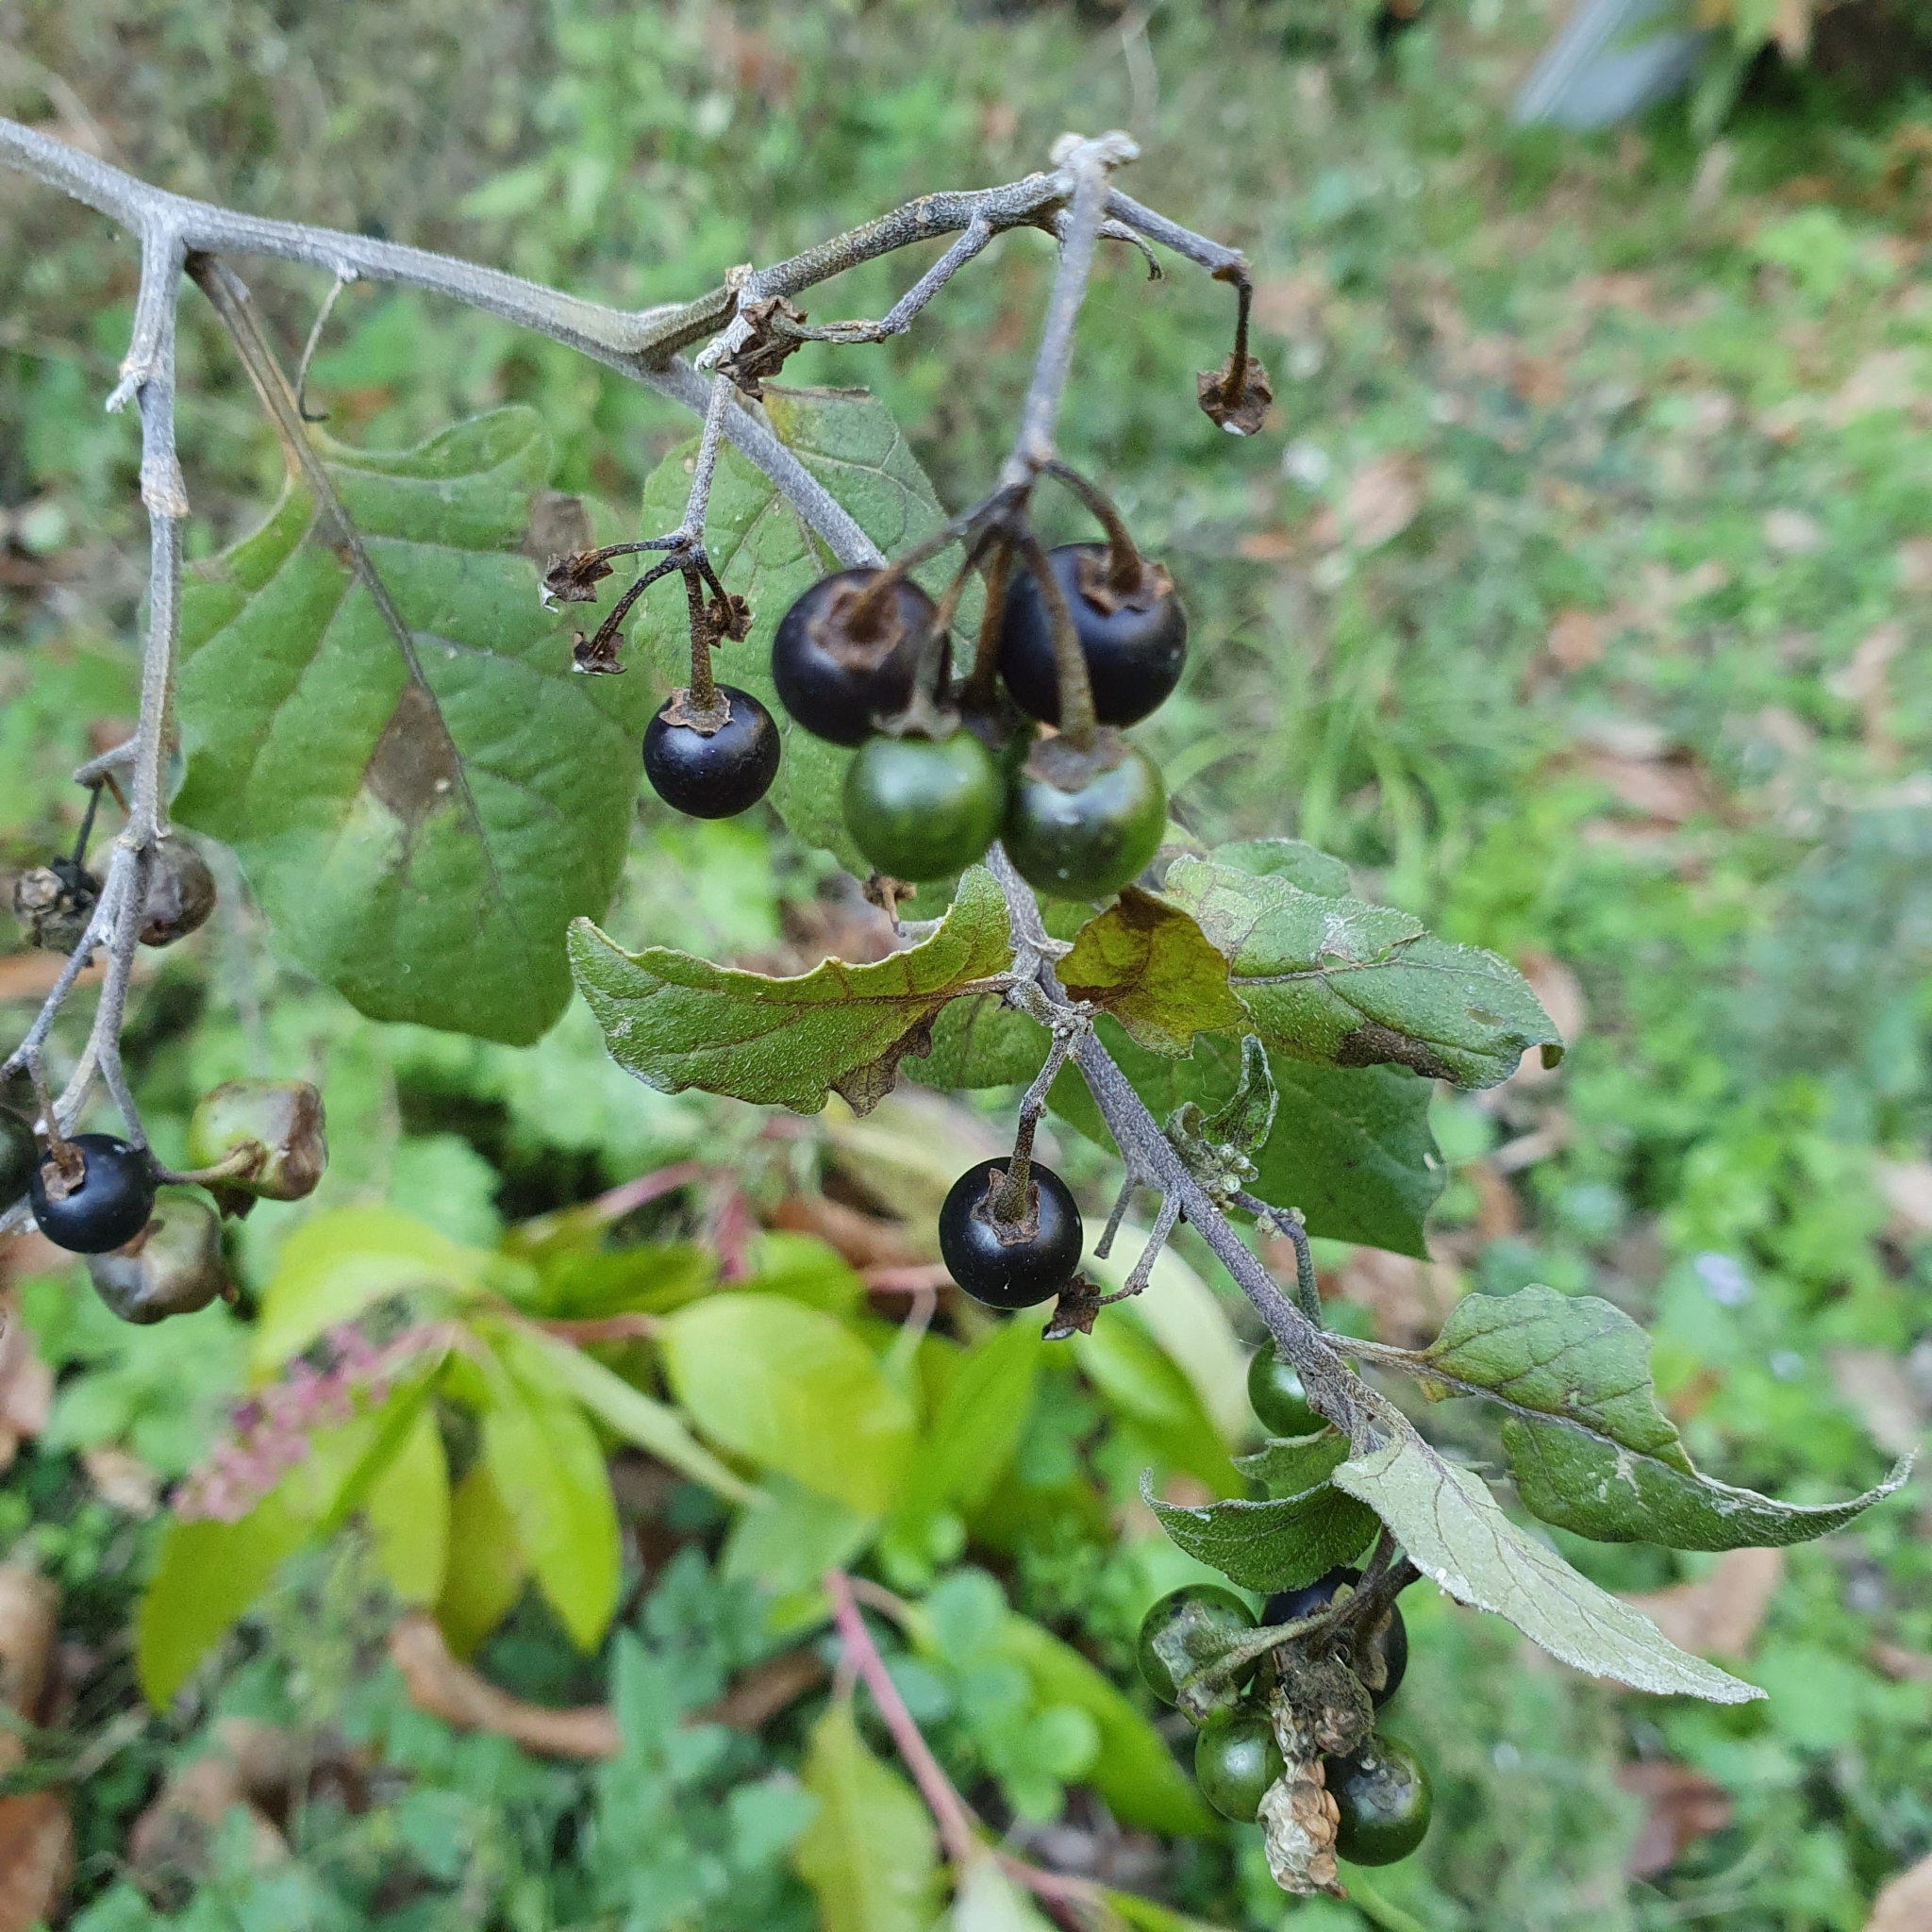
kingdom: Plantae
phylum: Tracheophyta
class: Magnoliopsida
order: Solanales
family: Solanaceae
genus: Solanum
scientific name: Solanum nigrum
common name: Black nightshade
